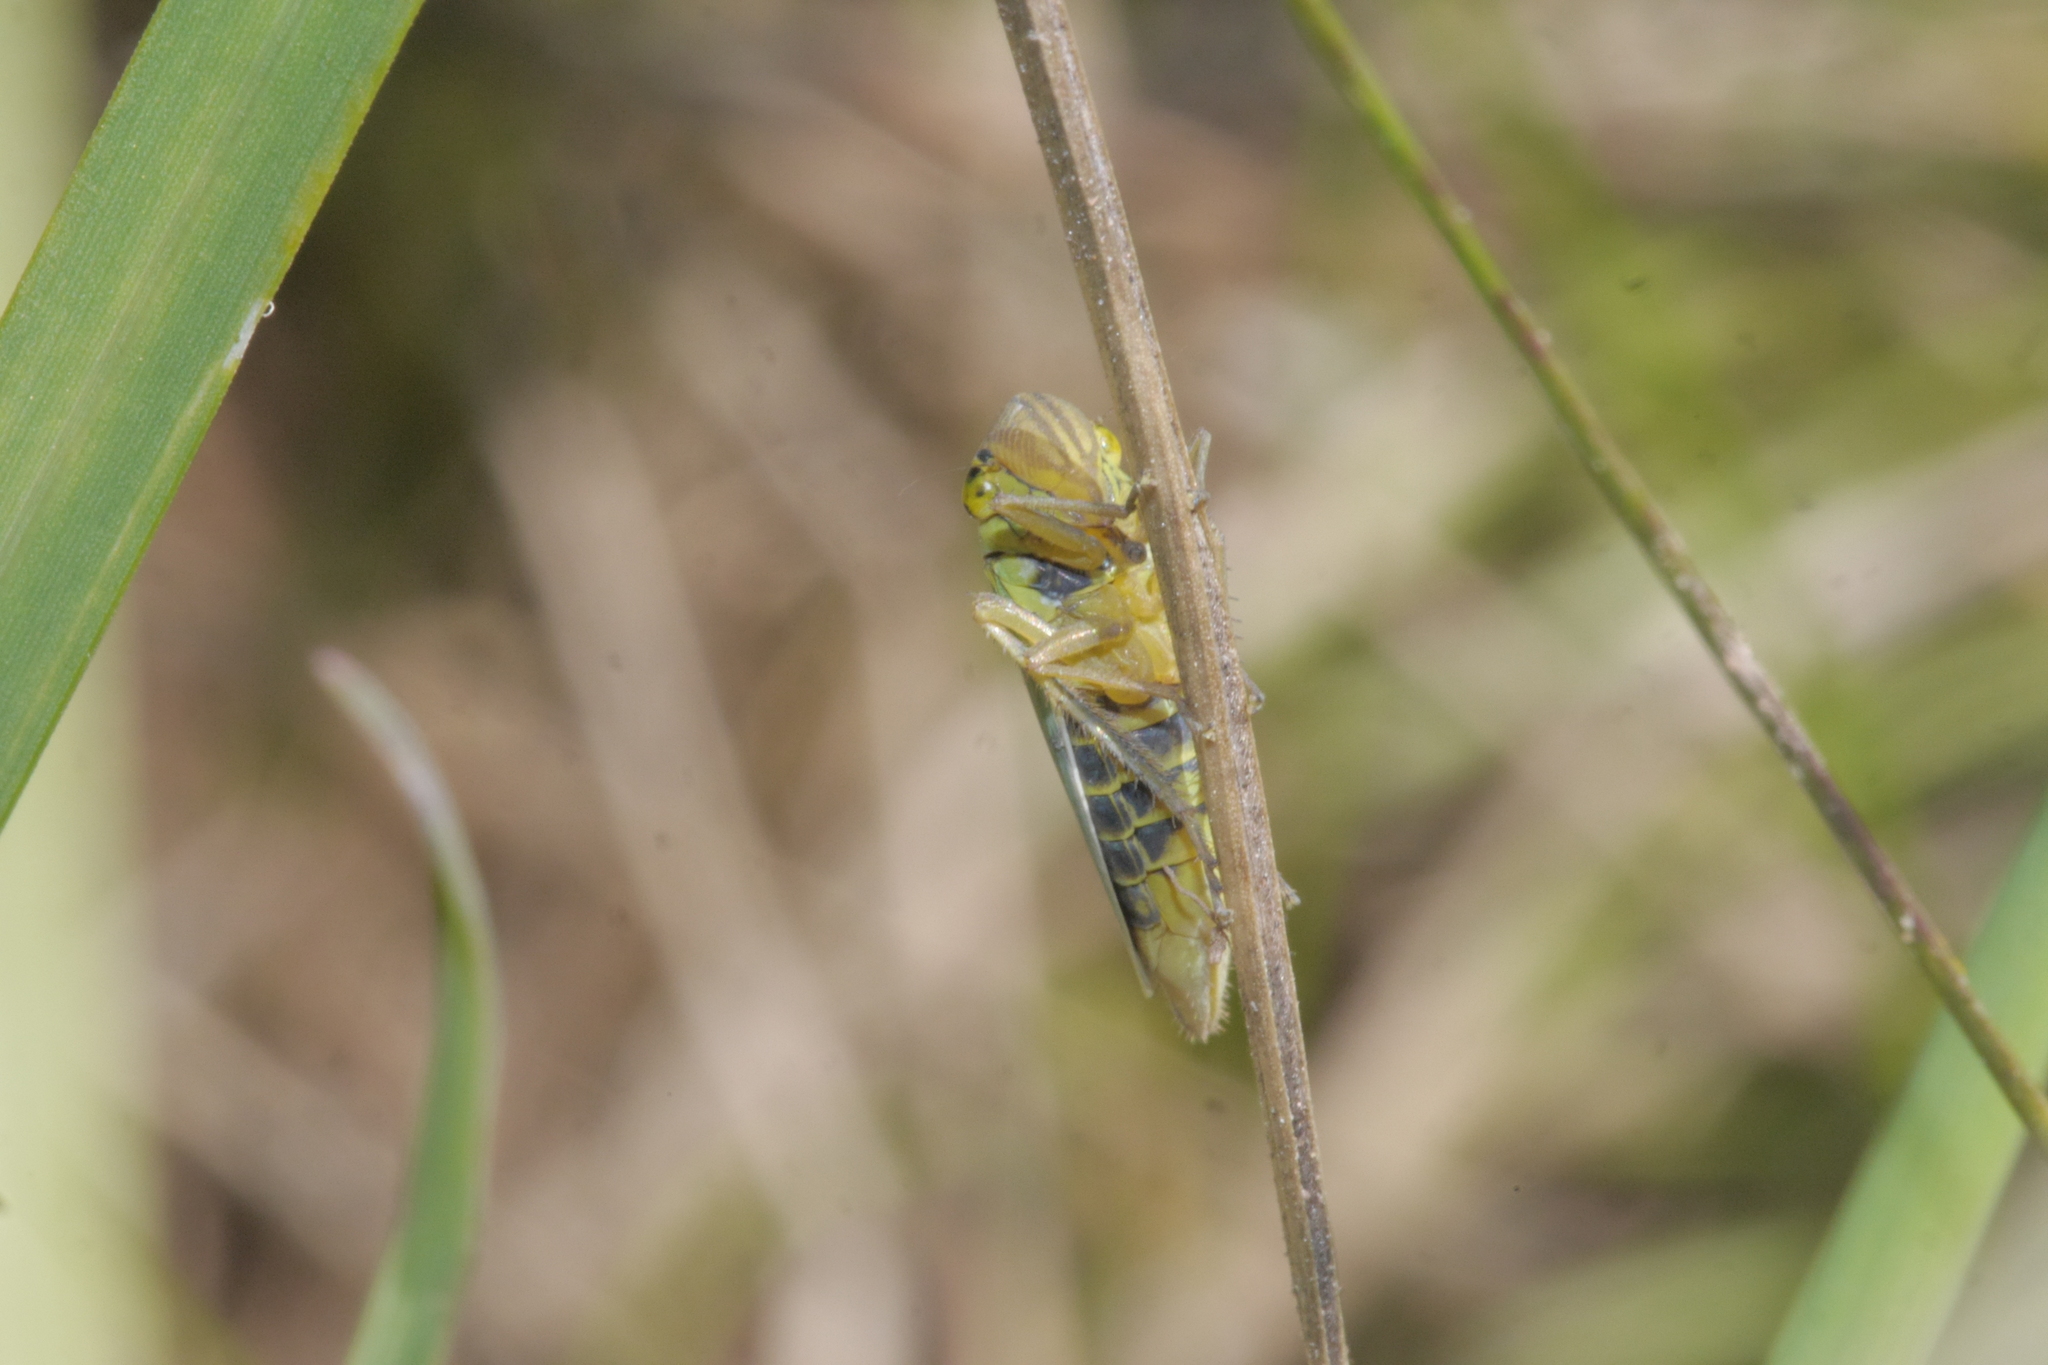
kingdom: Animalia
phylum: Arthropoda
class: Insecta
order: Hemiptera
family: Cicadellidae
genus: Cicadella
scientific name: Cicadella viridis
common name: Leafhopper
